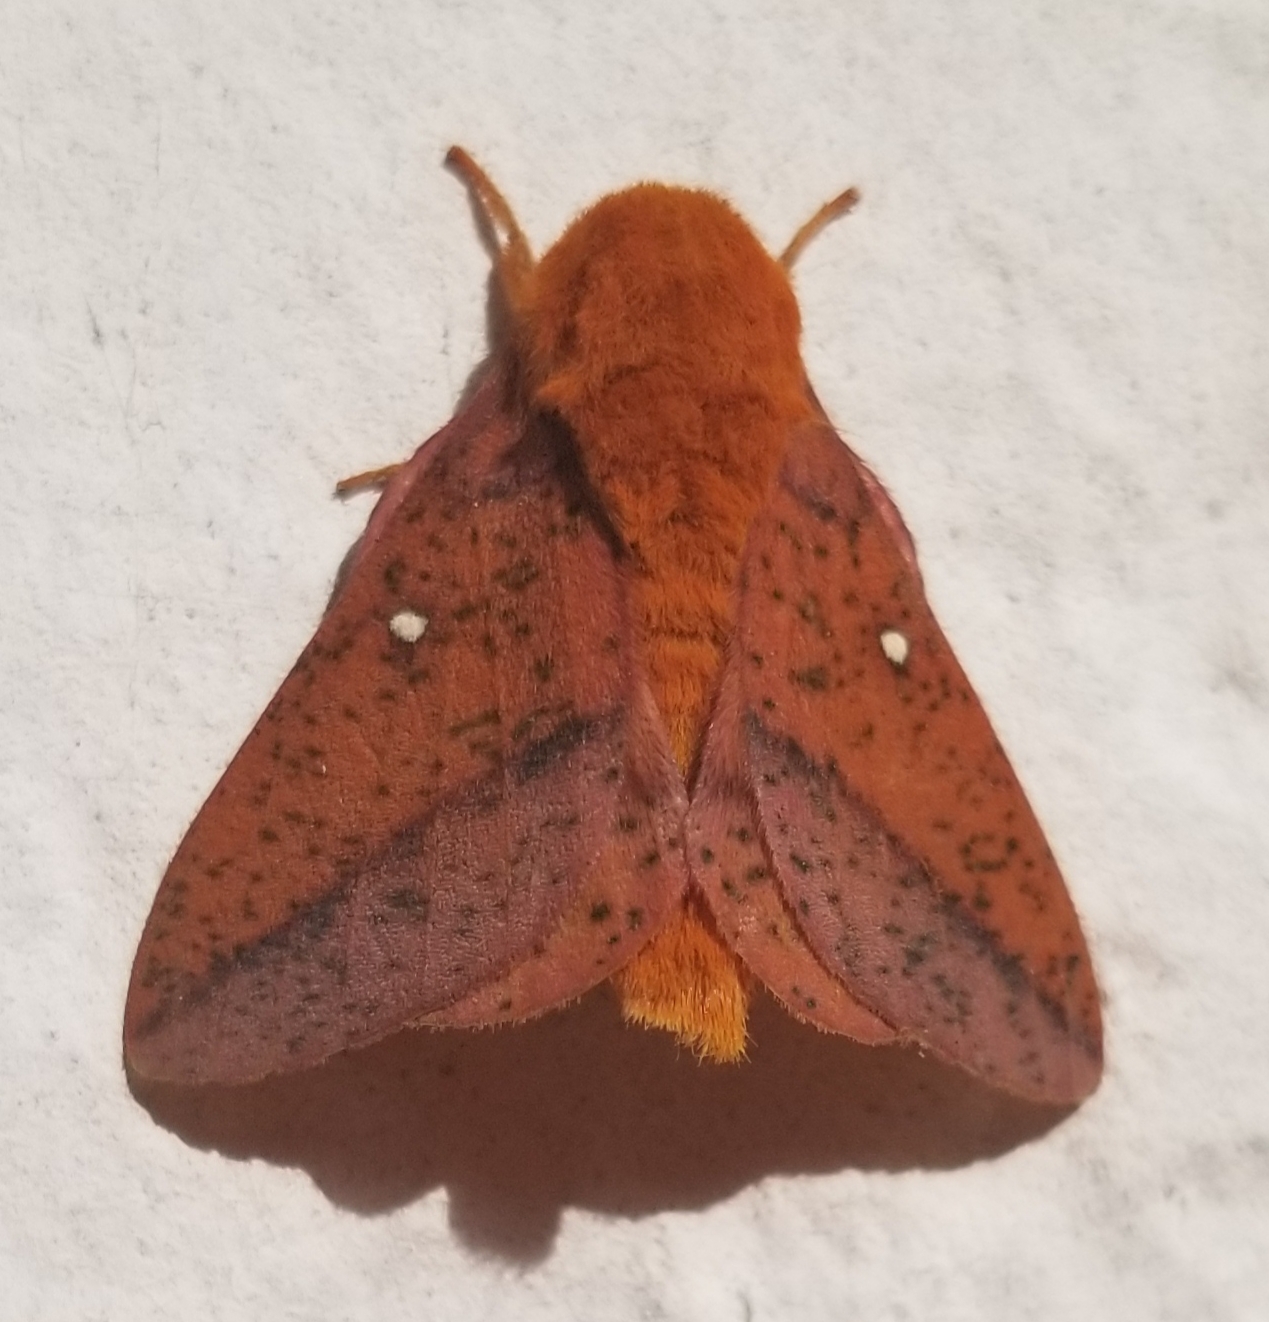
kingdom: Animalia
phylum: Arthropoda
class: Insecta
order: Lepidoptera
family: Saturniidae
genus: Anisota
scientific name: Anisota stigma
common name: Spiny oakworm moth
